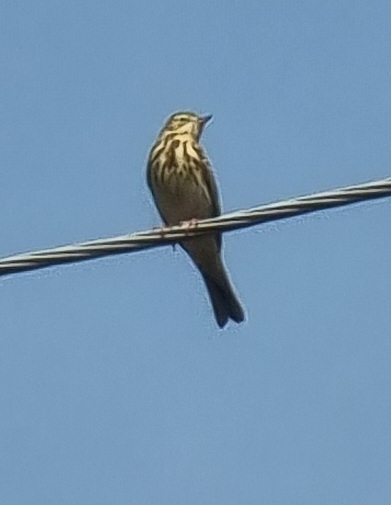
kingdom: Animalia
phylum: Chordata
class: Aves
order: Passeriformes
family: Motacillidae
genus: Anthus
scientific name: Anthus trivialis
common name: Tree pipit
